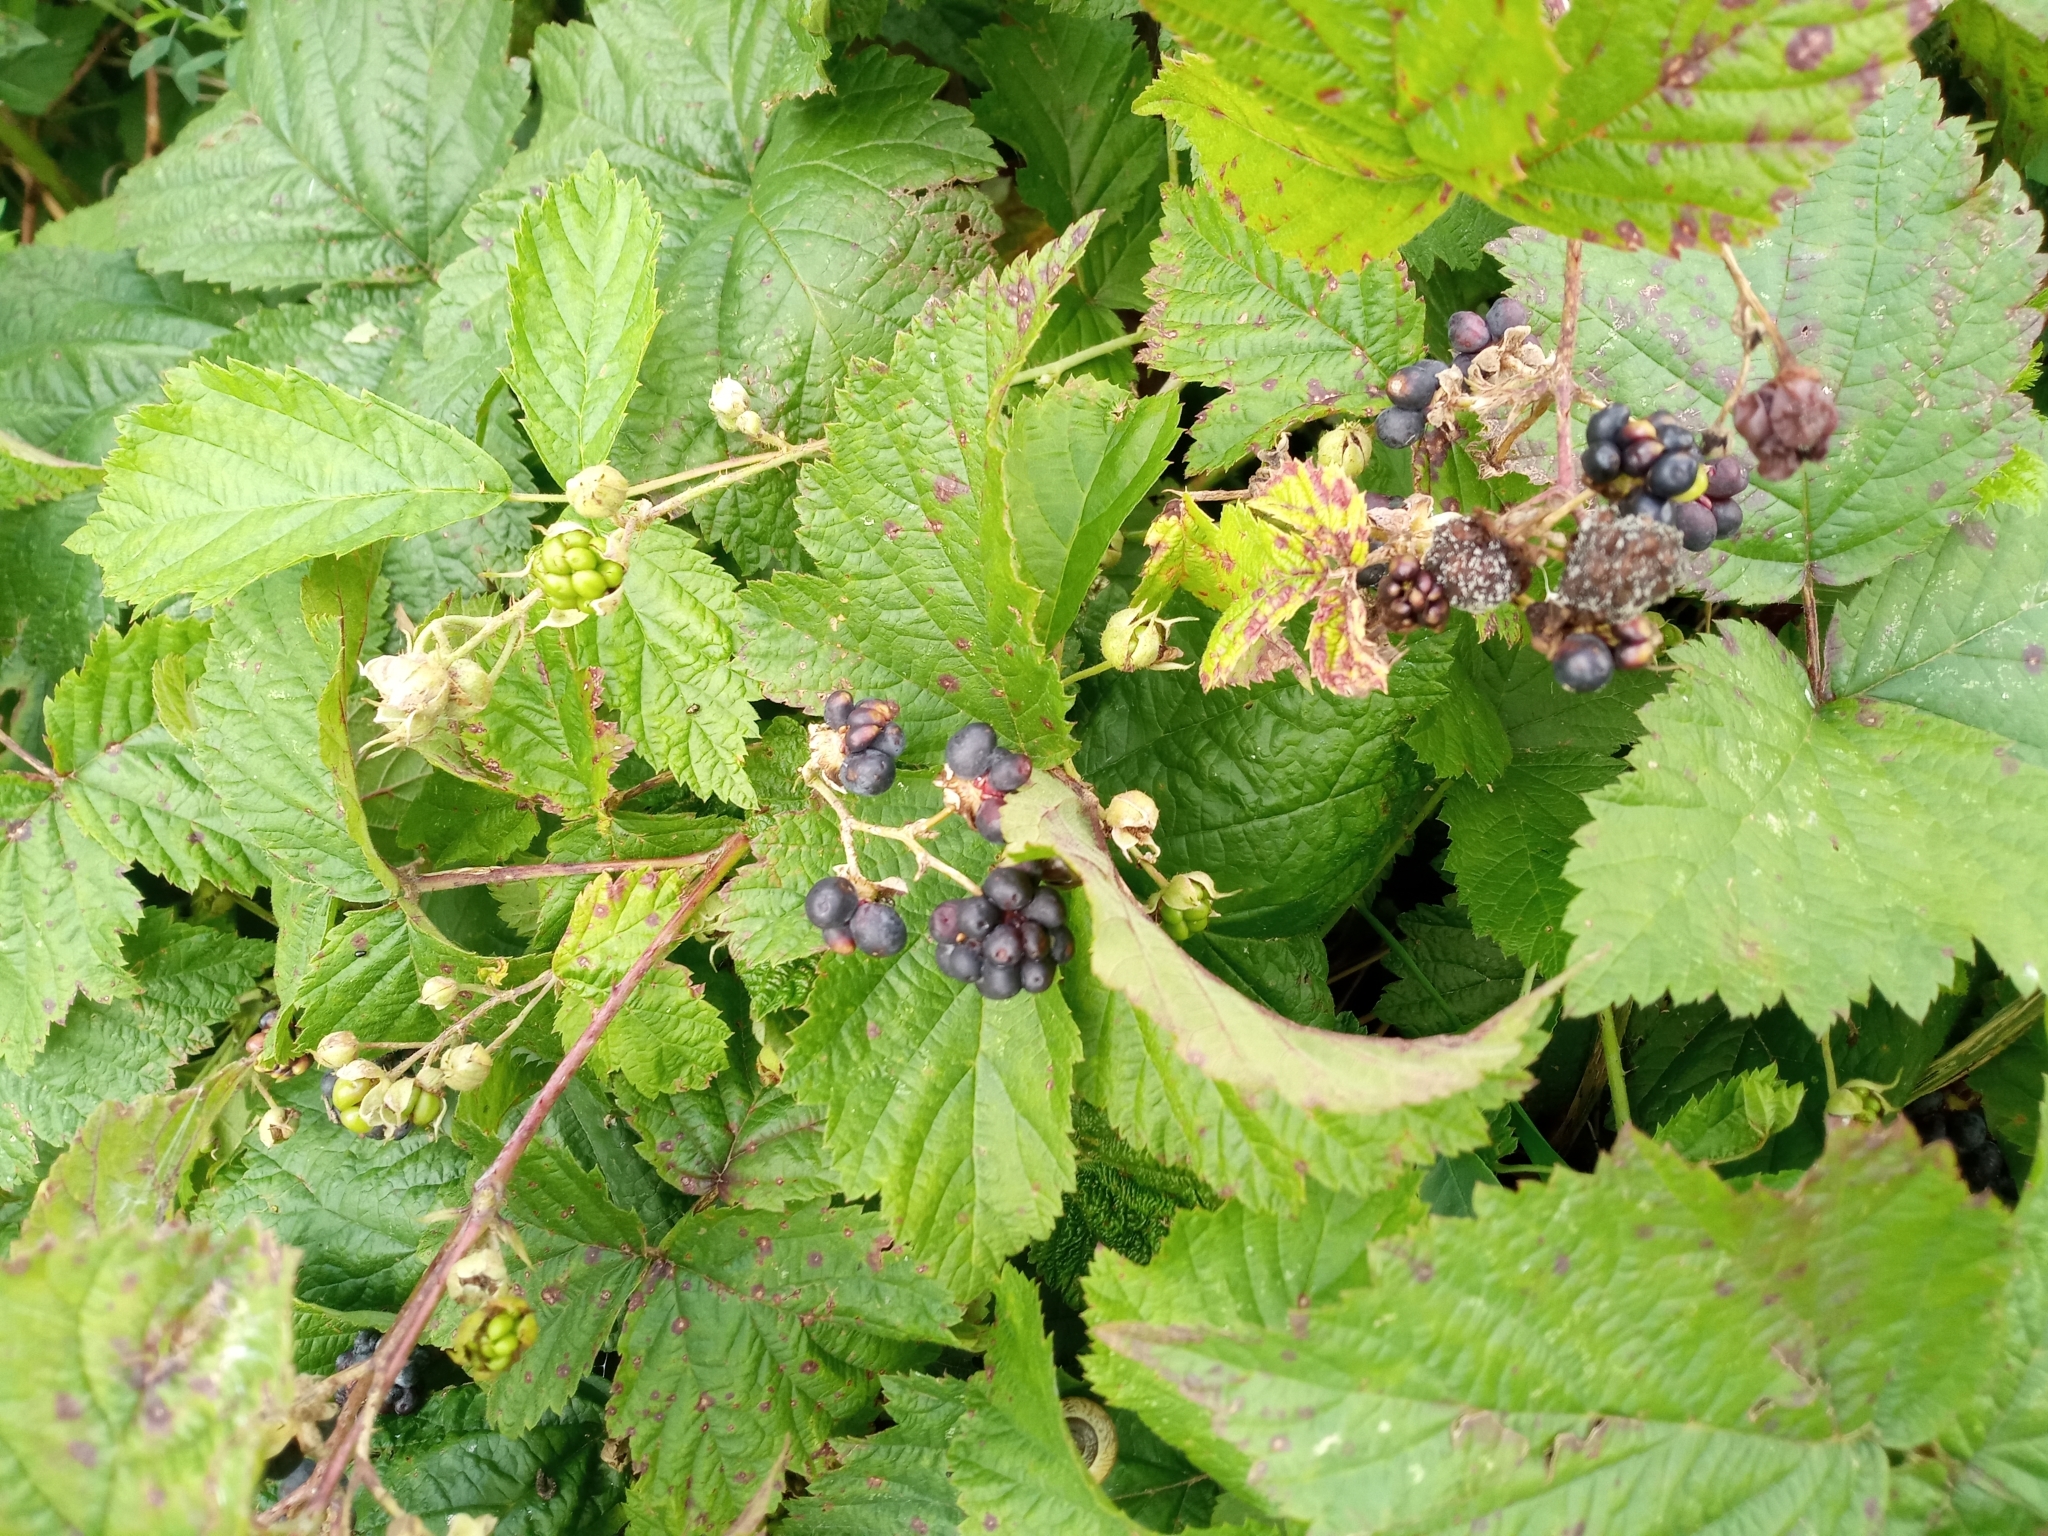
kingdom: Plantae
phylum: Tracheophyta
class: Magnoliopsida
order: Rosales
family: Rosaceae
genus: Rubus
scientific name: Rubus caesius
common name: Dewberry
